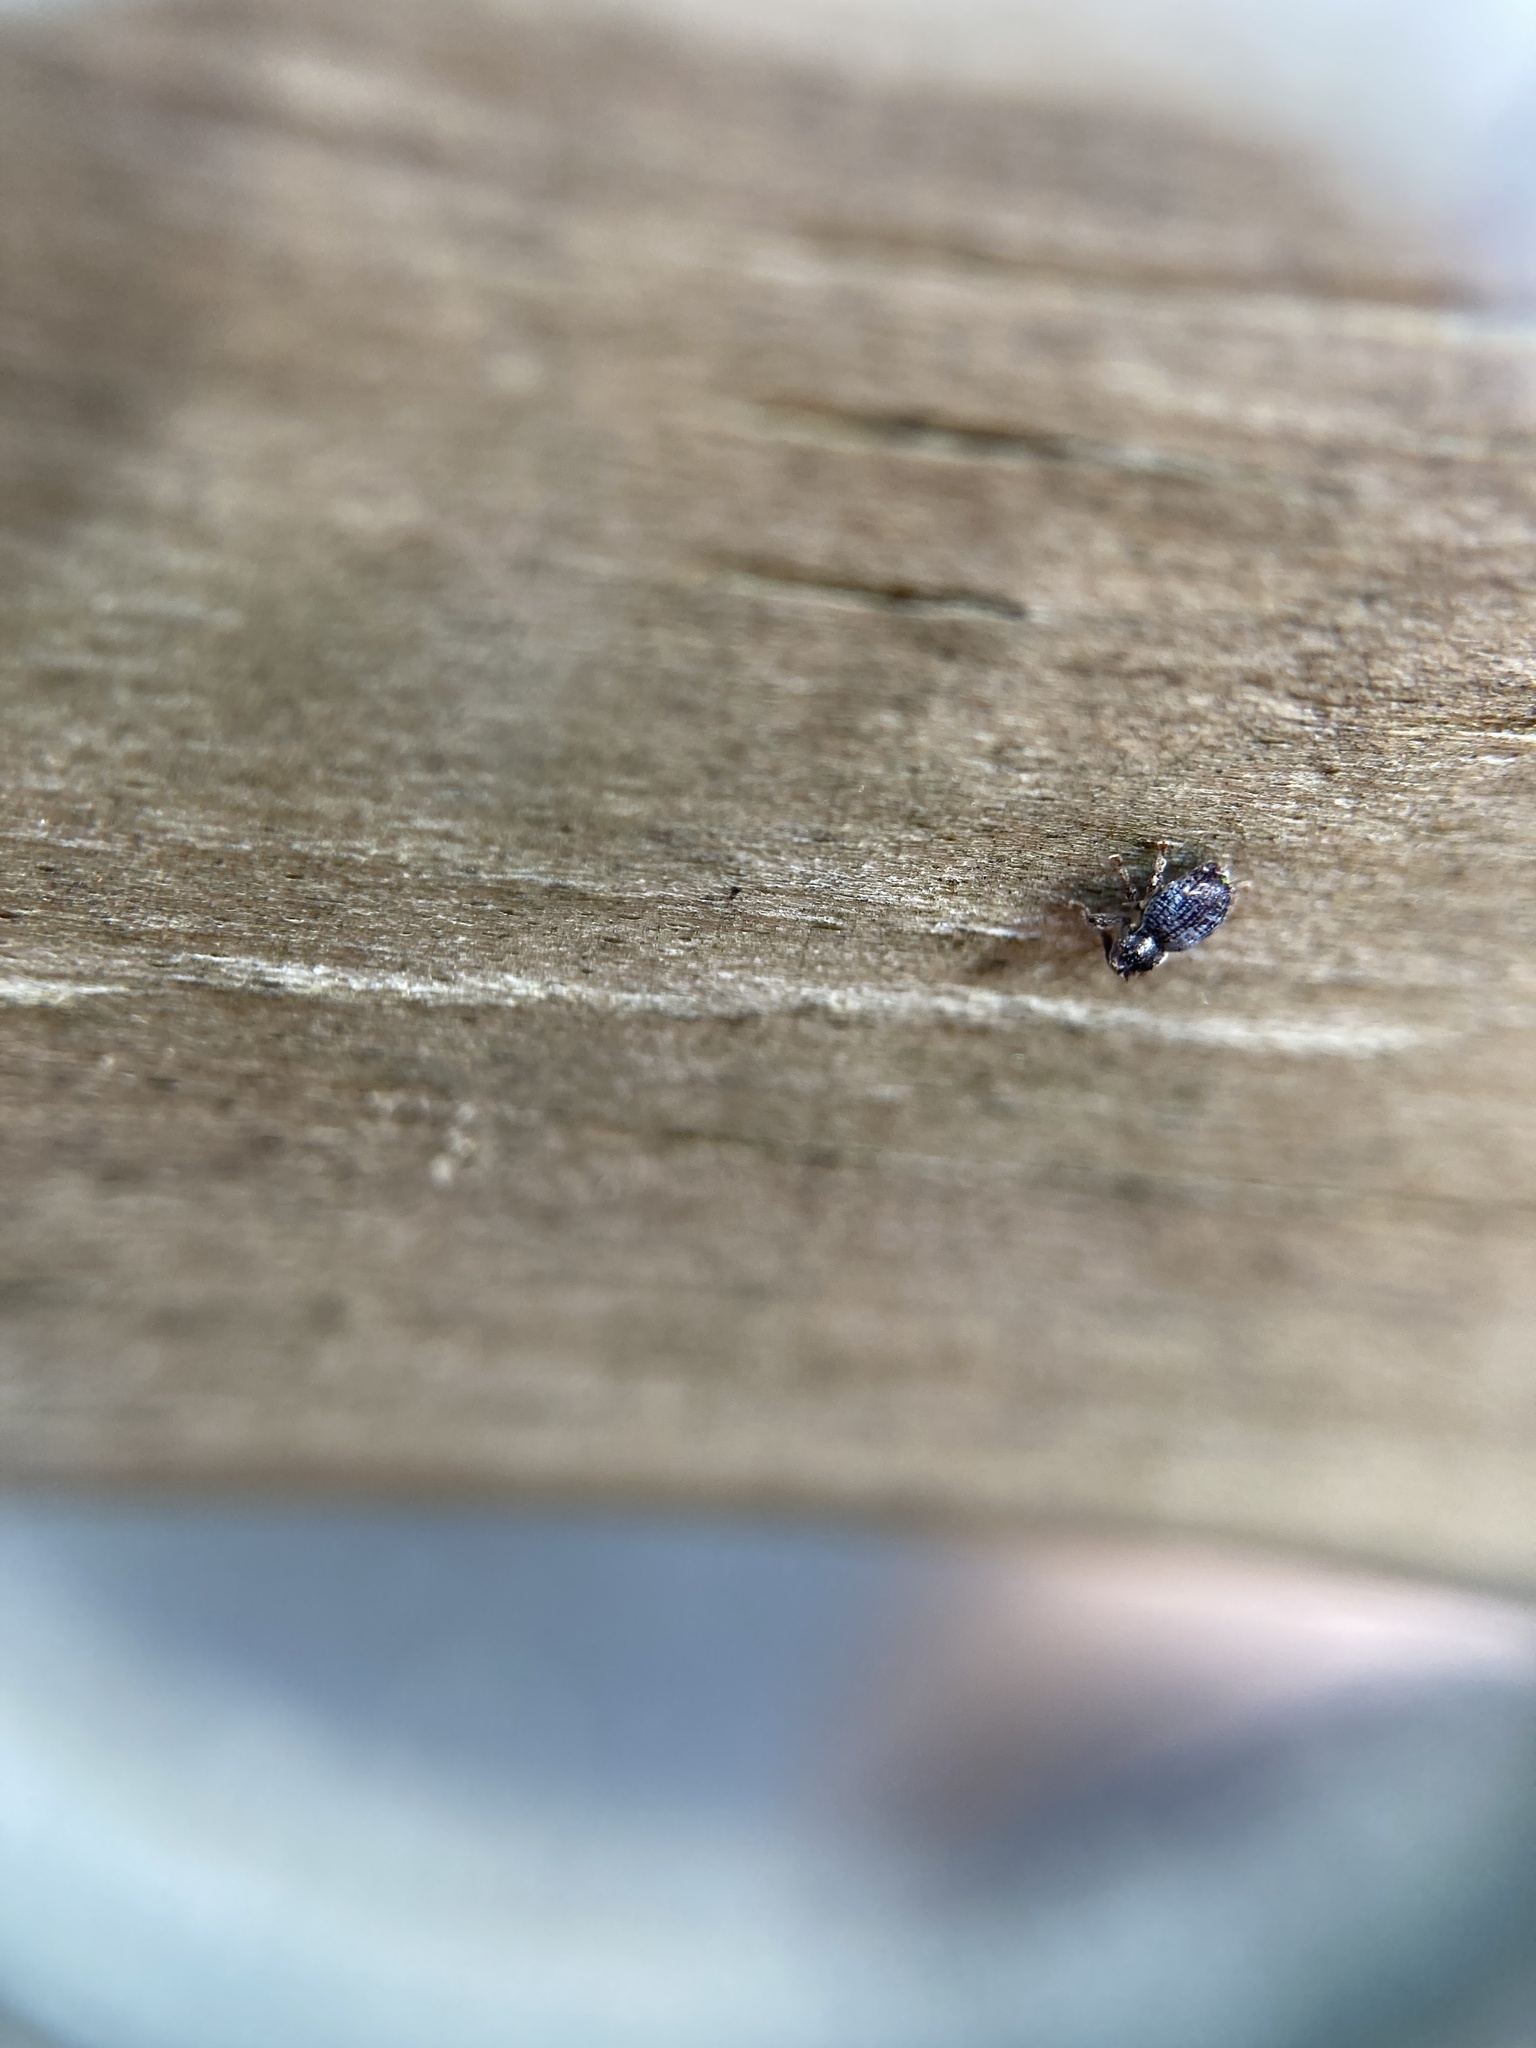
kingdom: Animalia
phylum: Arthropoda
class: Insecta
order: Coleoptera
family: Curculionidae
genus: Microcryptorhynchus
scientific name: Microcryptorhynchus perpusillus
